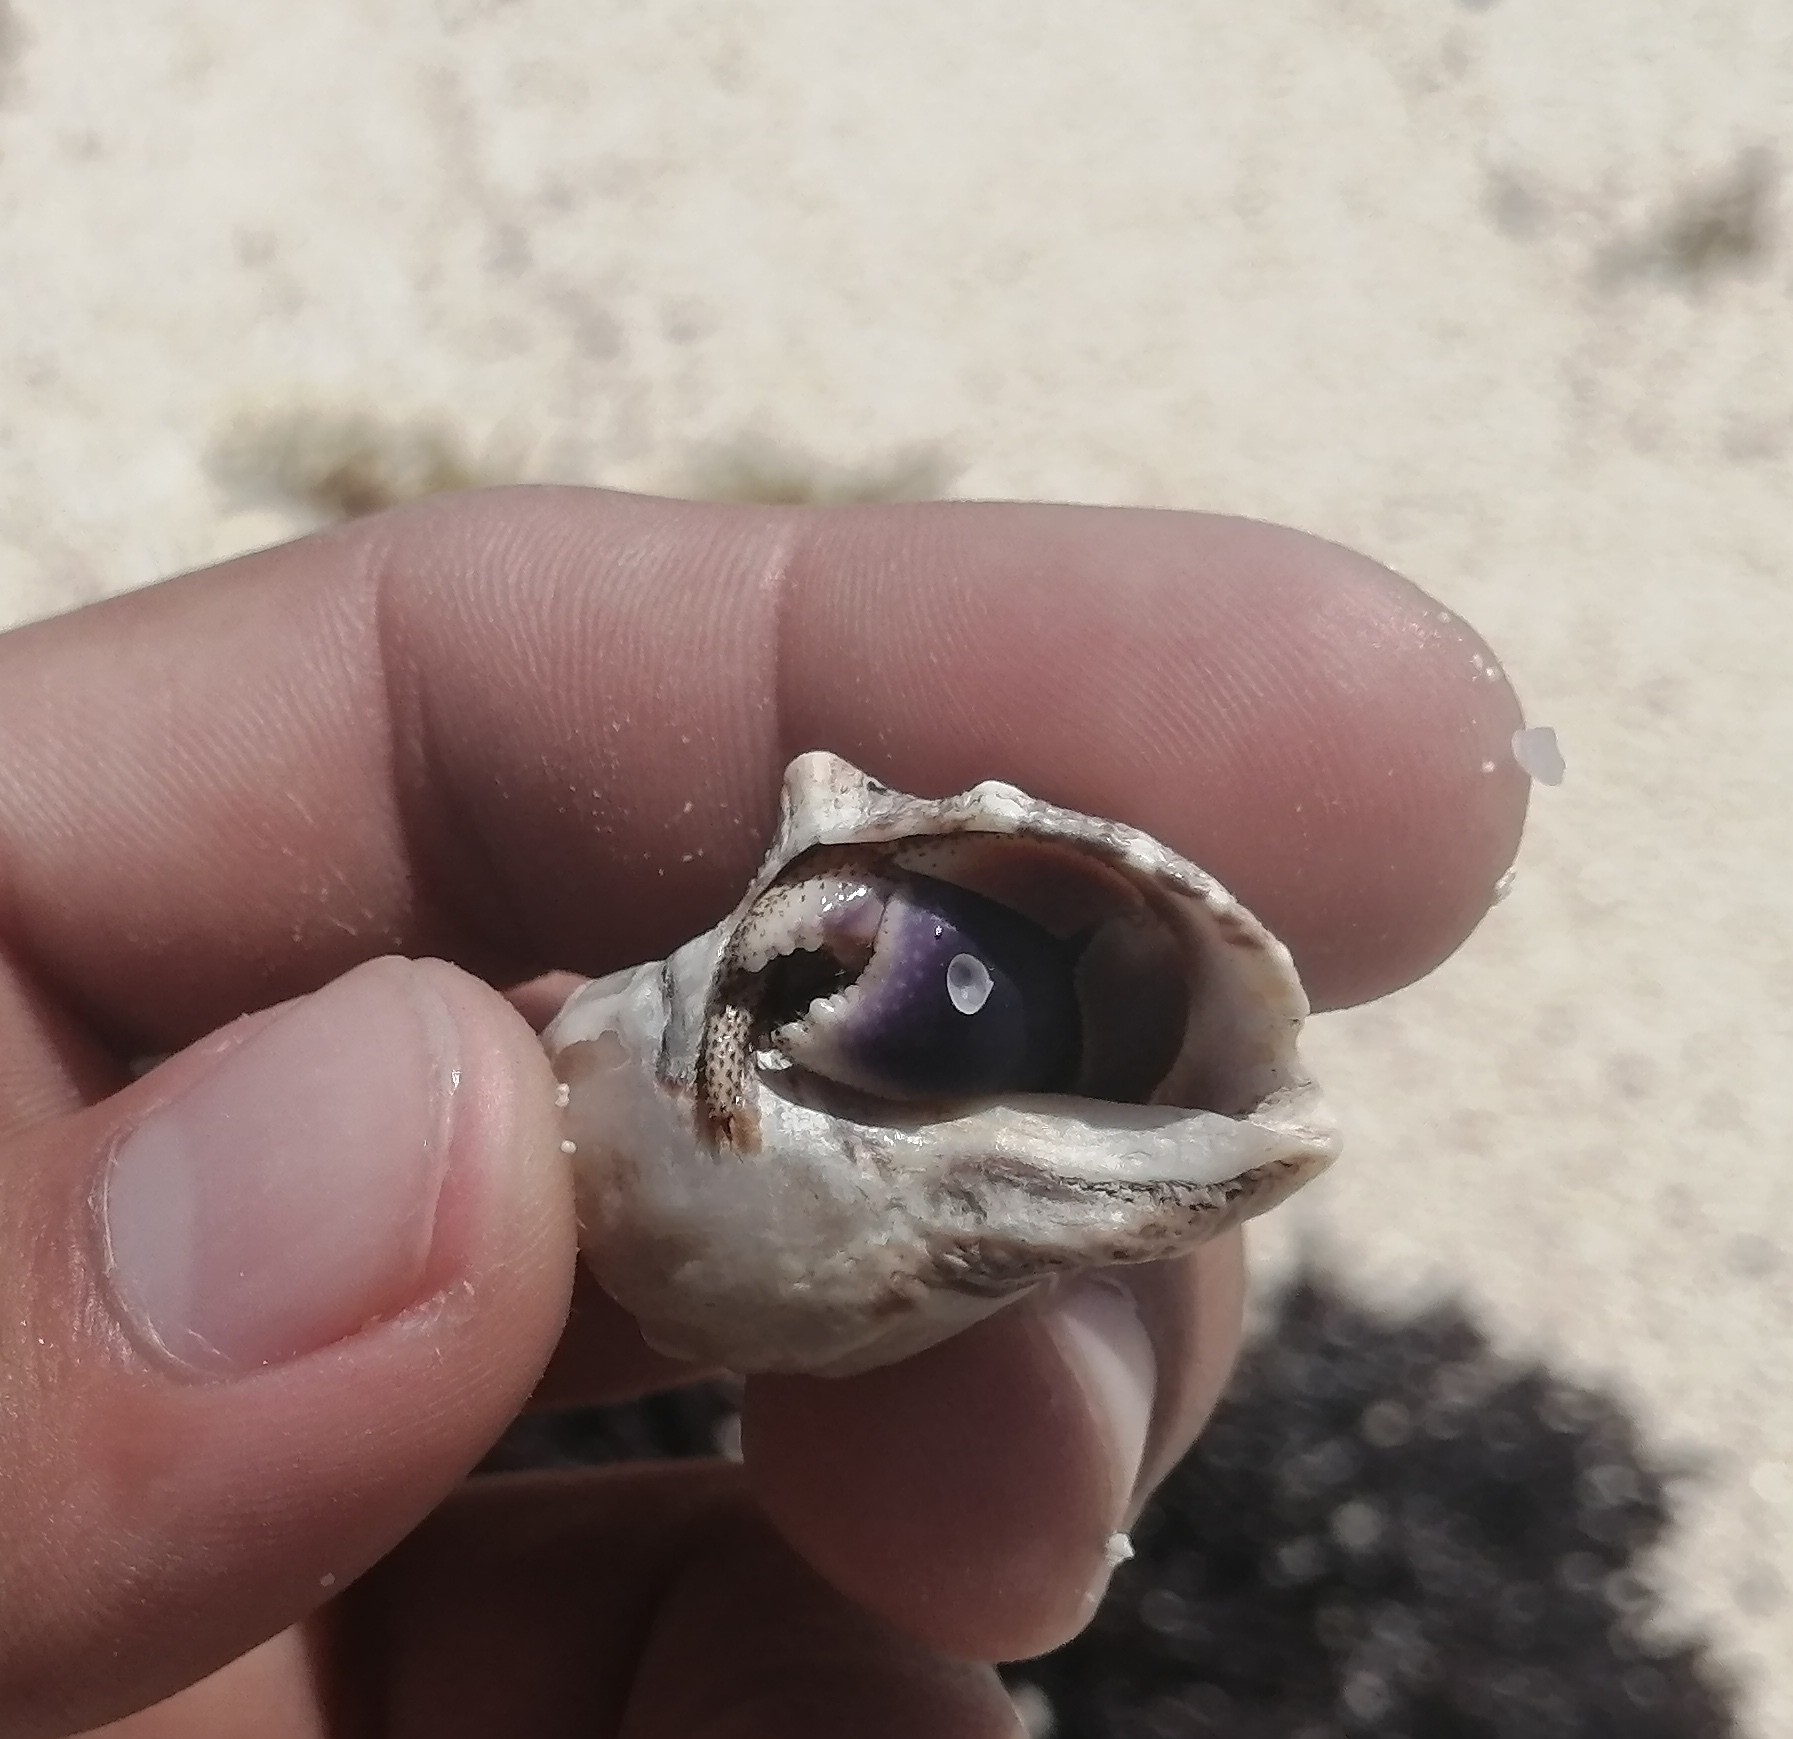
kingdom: Animalia
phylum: Arthropoda
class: Malacostraca
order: Decapoda
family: Coenobitidae
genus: Coenobita
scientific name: Coenobita clypeatus
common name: Caribbean hermit crab
